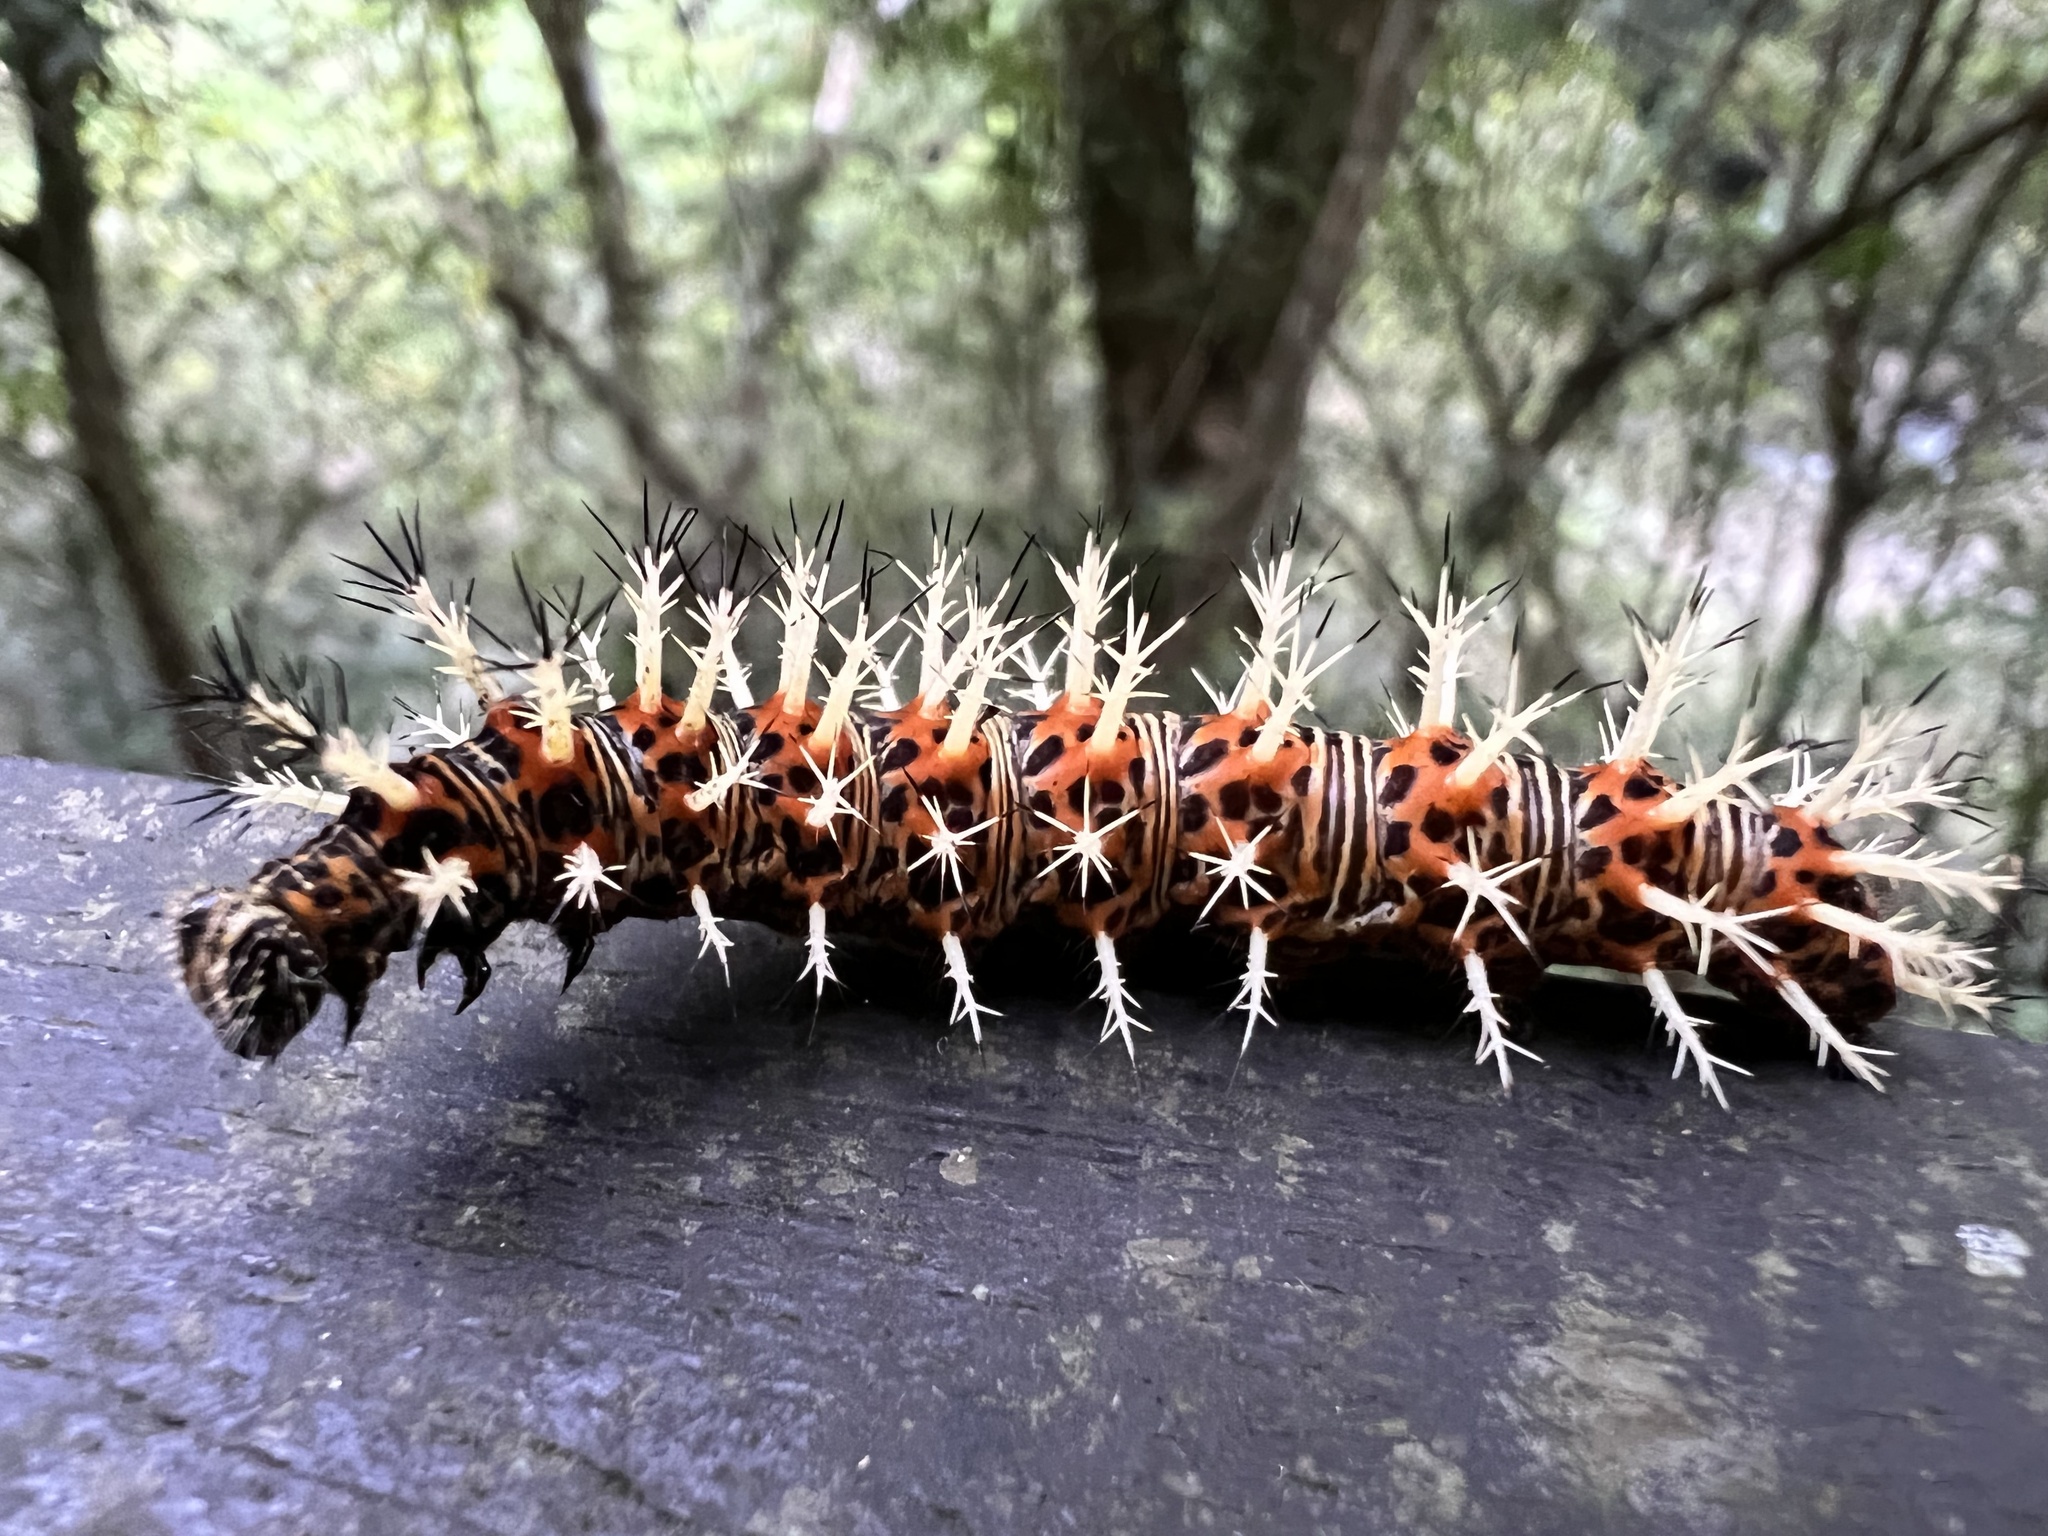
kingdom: Animalia
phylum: Arthropoda
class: Insecta
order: Lepidoptera
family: Nymphalidae
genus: Vanessa
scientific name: Vanessa Kaniska canace
